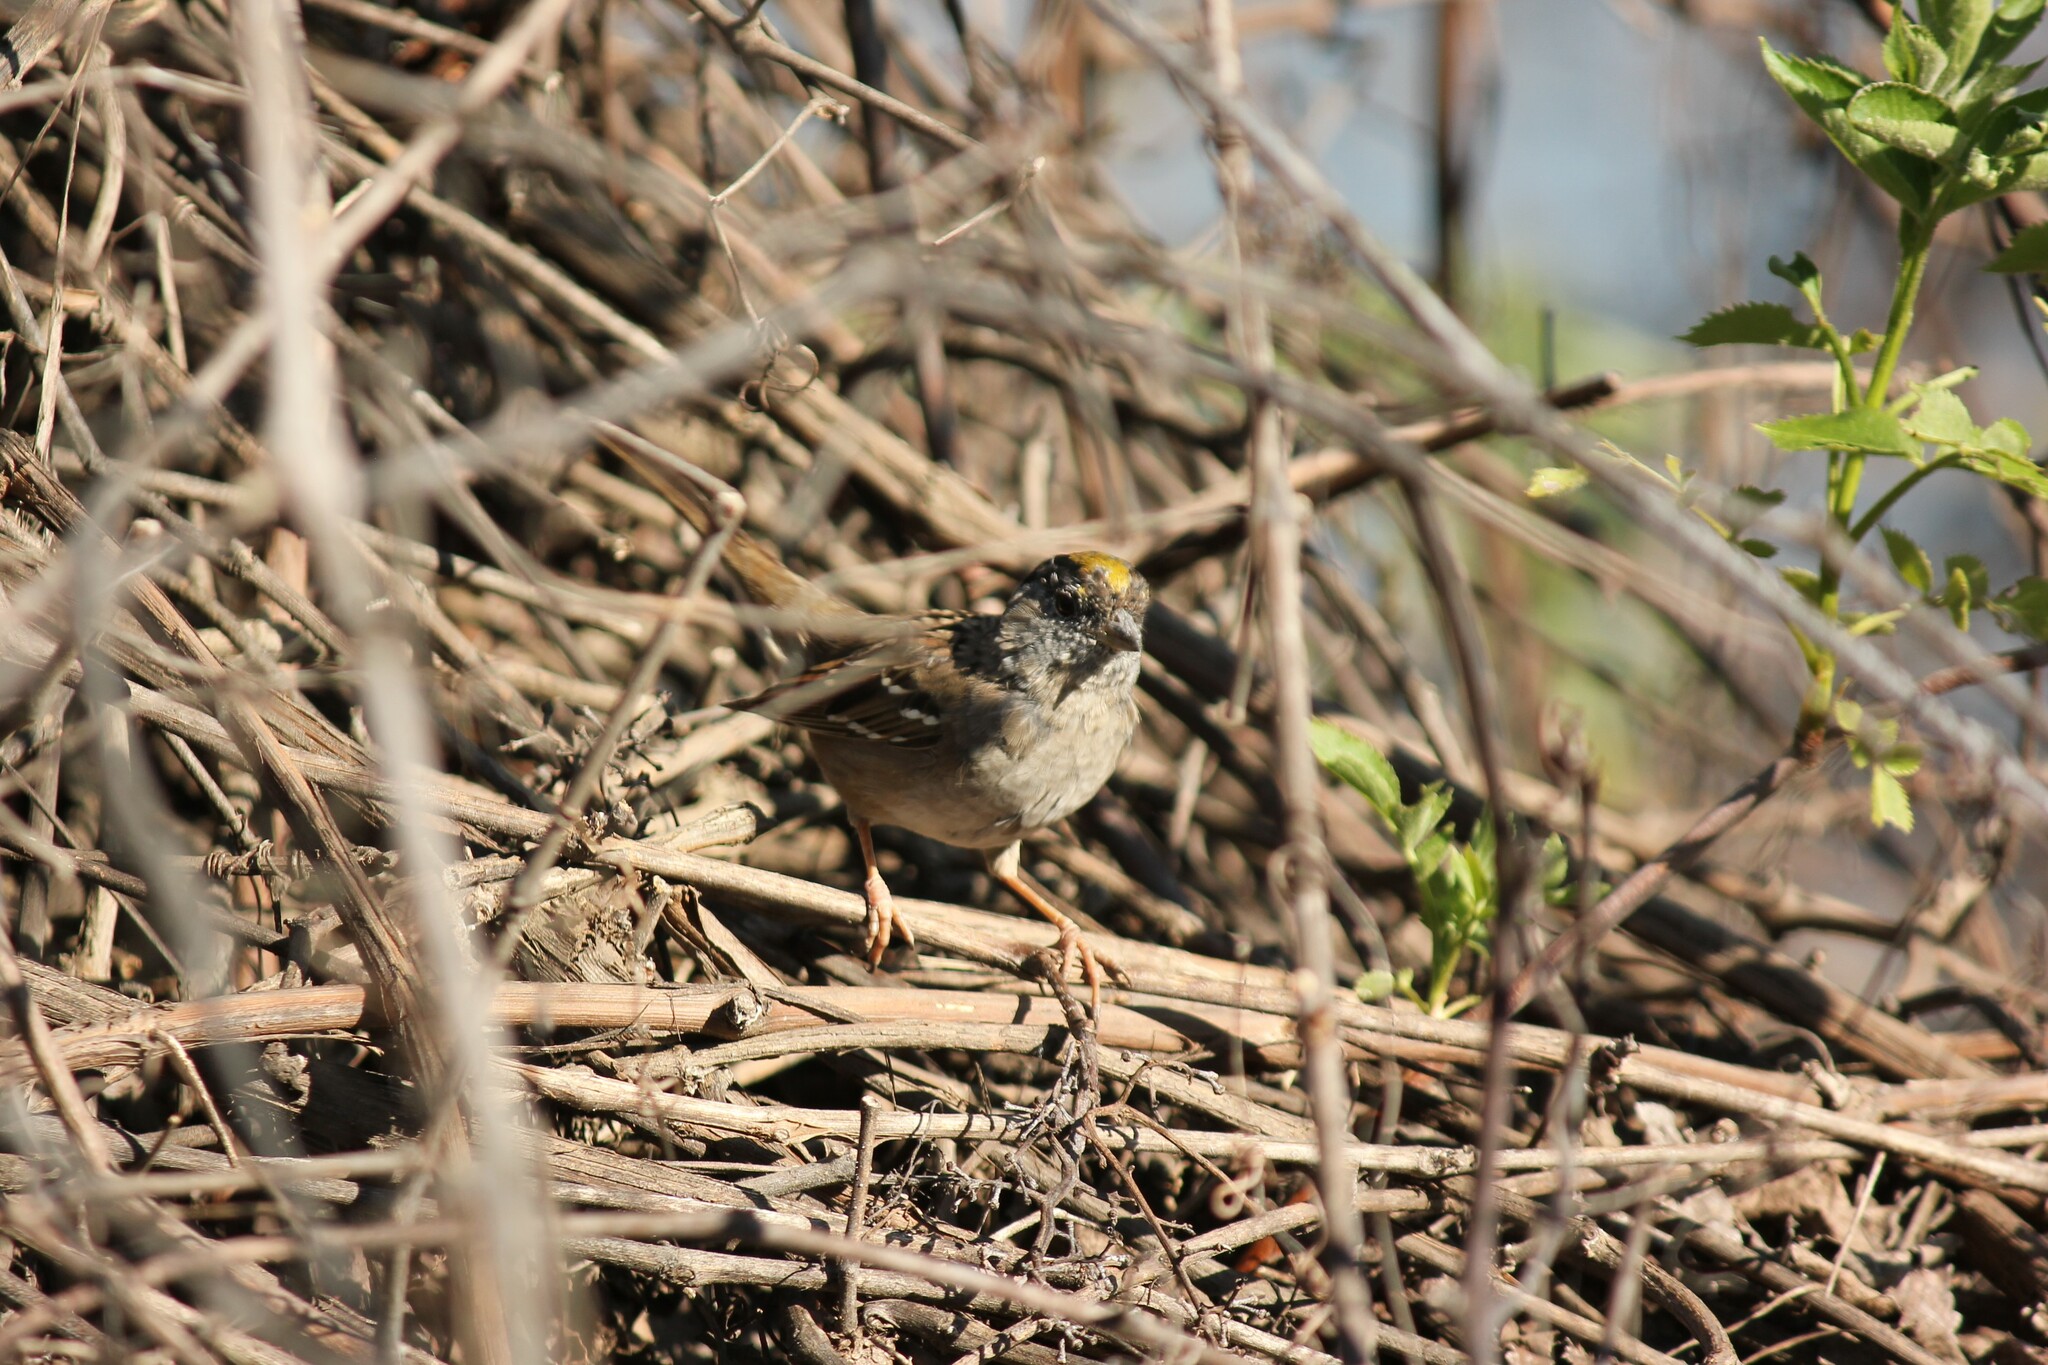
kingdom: Animalia
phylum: Chordata
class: Aves
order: Passeriformes
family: Passerellidae
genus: Zonotrichia
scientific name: Zonotrichia atricapilla
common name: Golden-crowned sparrow
